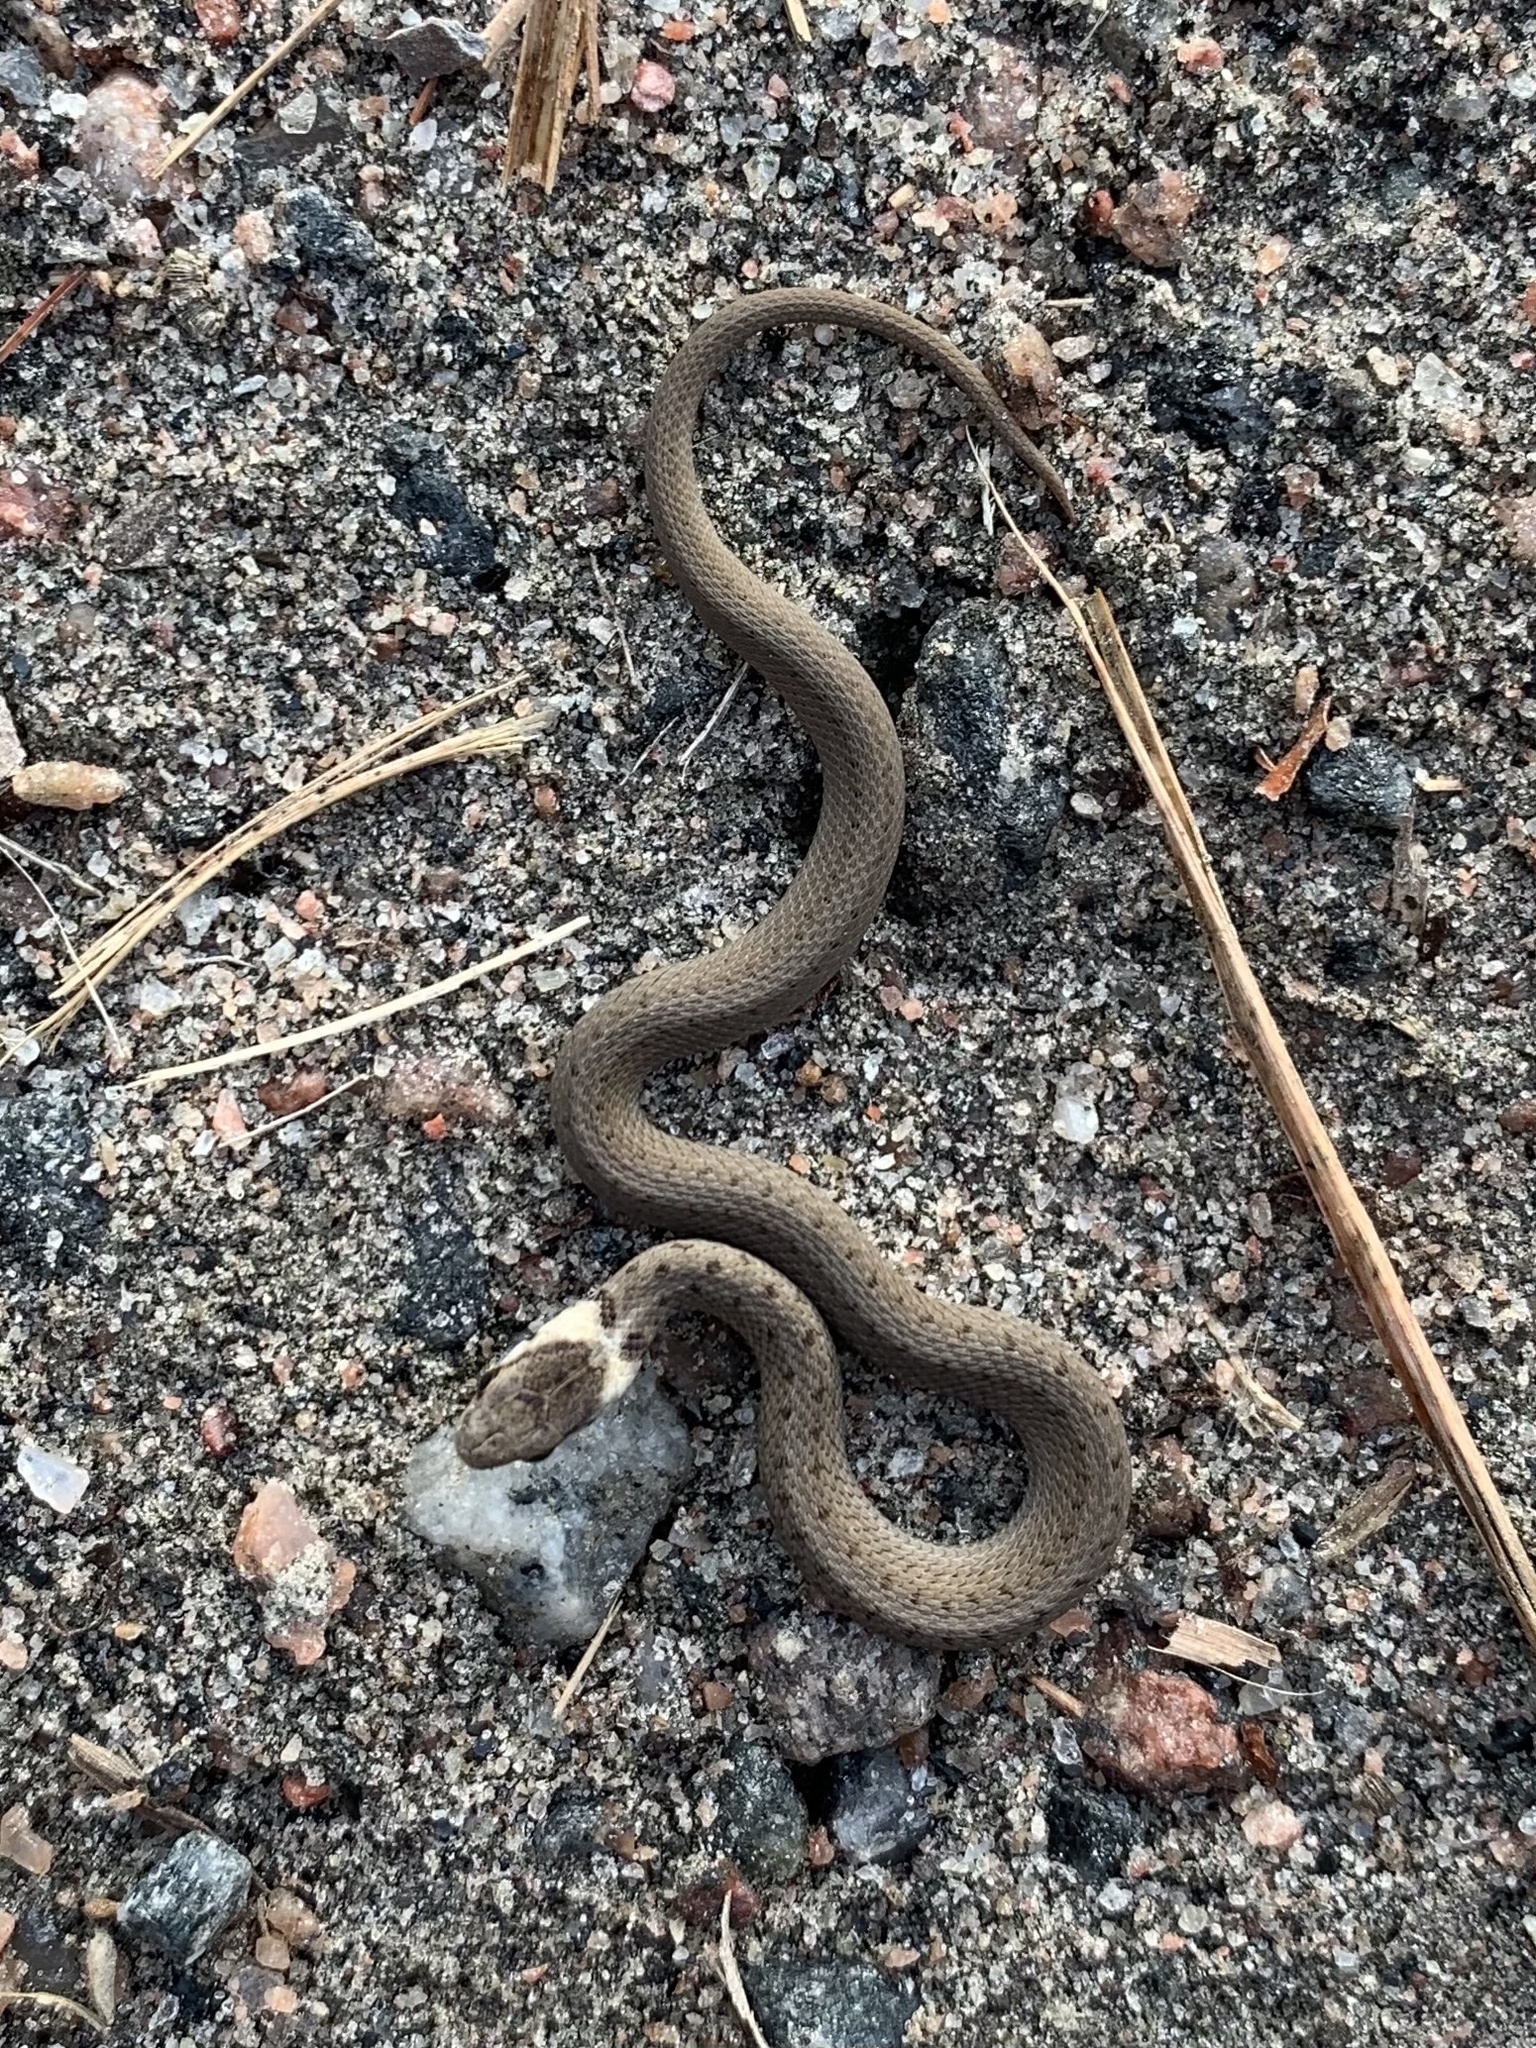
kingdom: Animalia
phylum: Chordata
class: Squamata
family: Colubridae
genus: Storeria
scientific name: Storeria dekayi
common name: (dekay’s) brown snake
